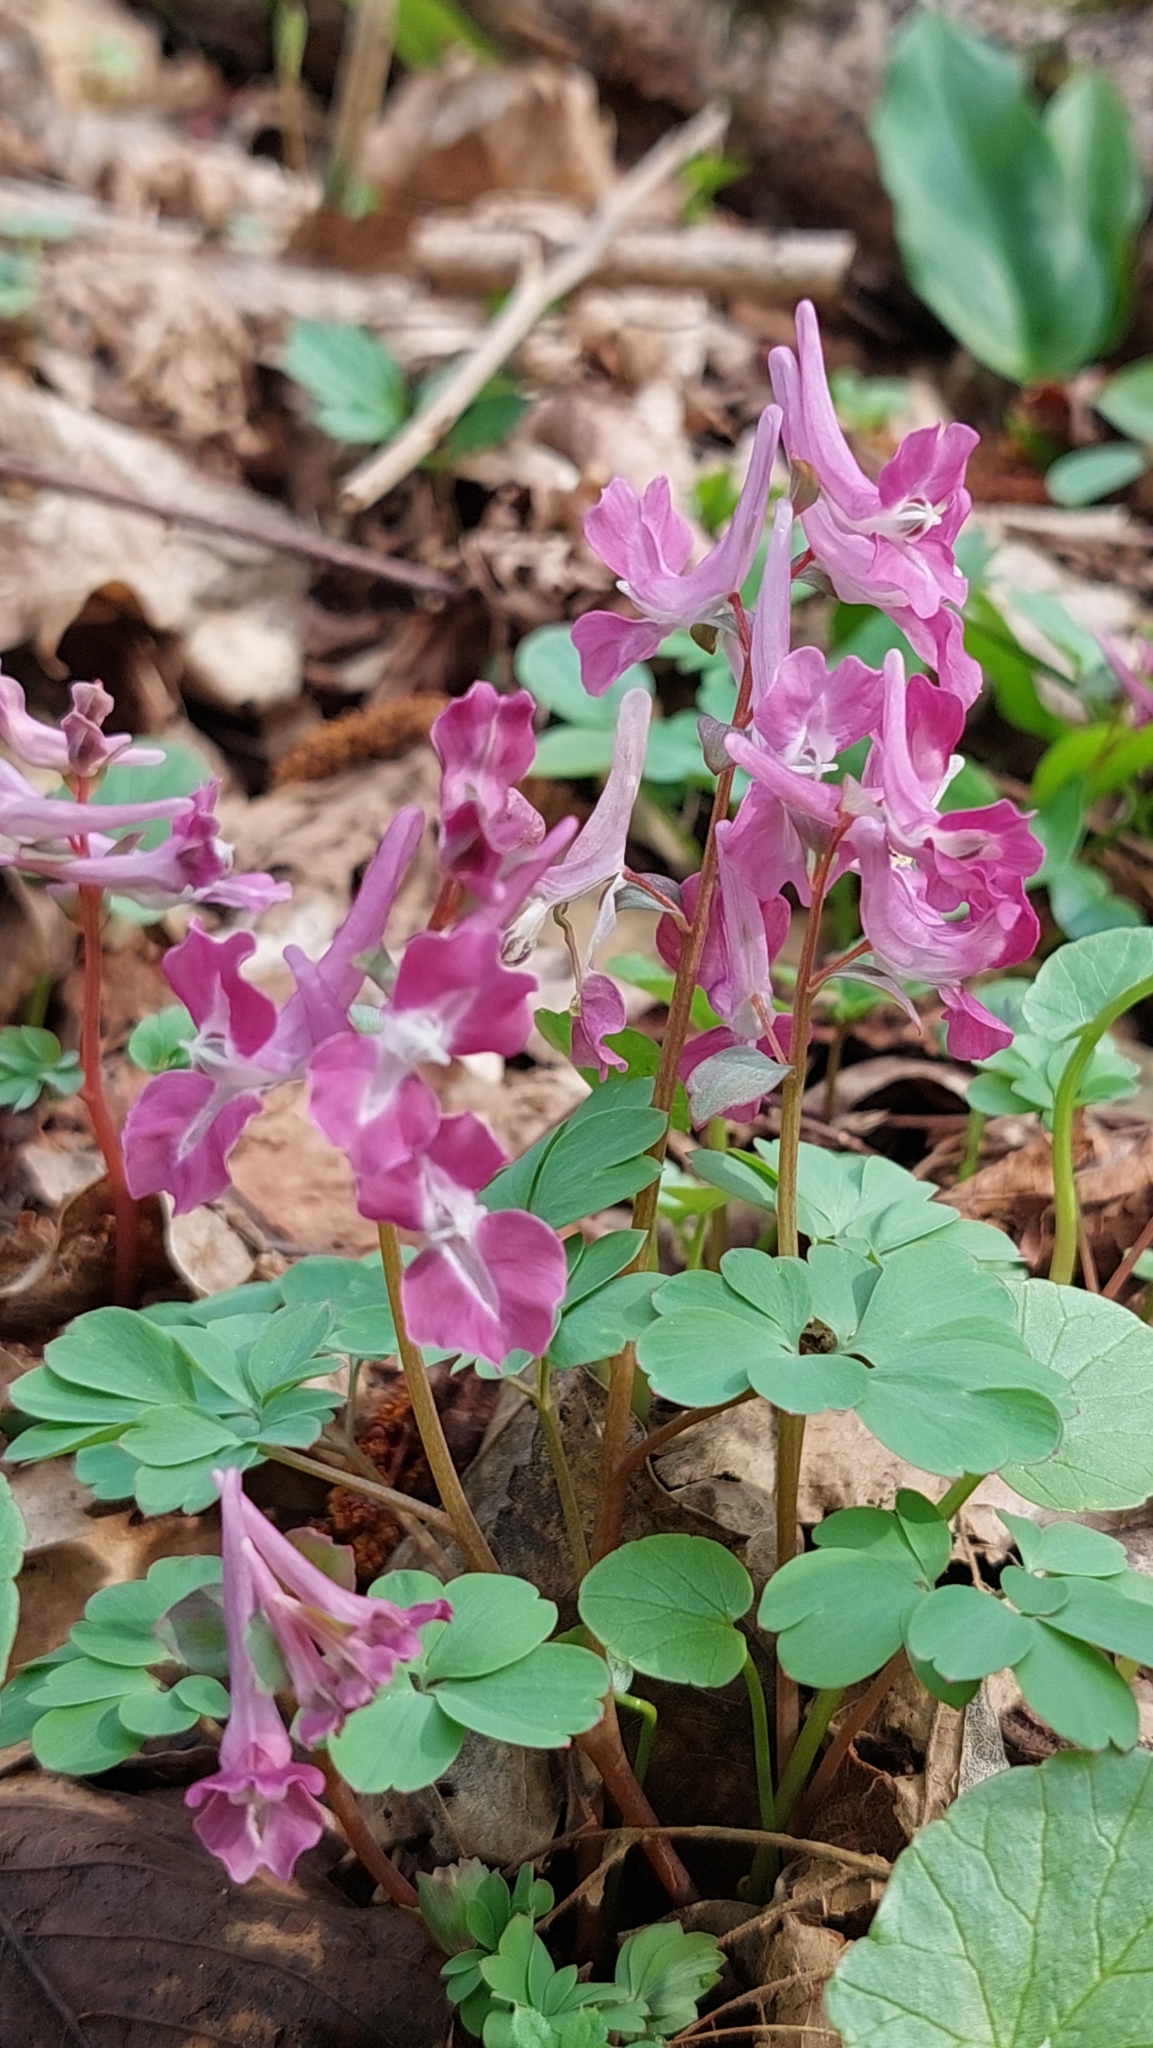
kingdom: Plantae
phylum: Tracheophyta
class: Magnoliopsida
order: Ranunculales
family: Papaveraceae
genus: Corydalis
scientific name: Corydalis caucasica
